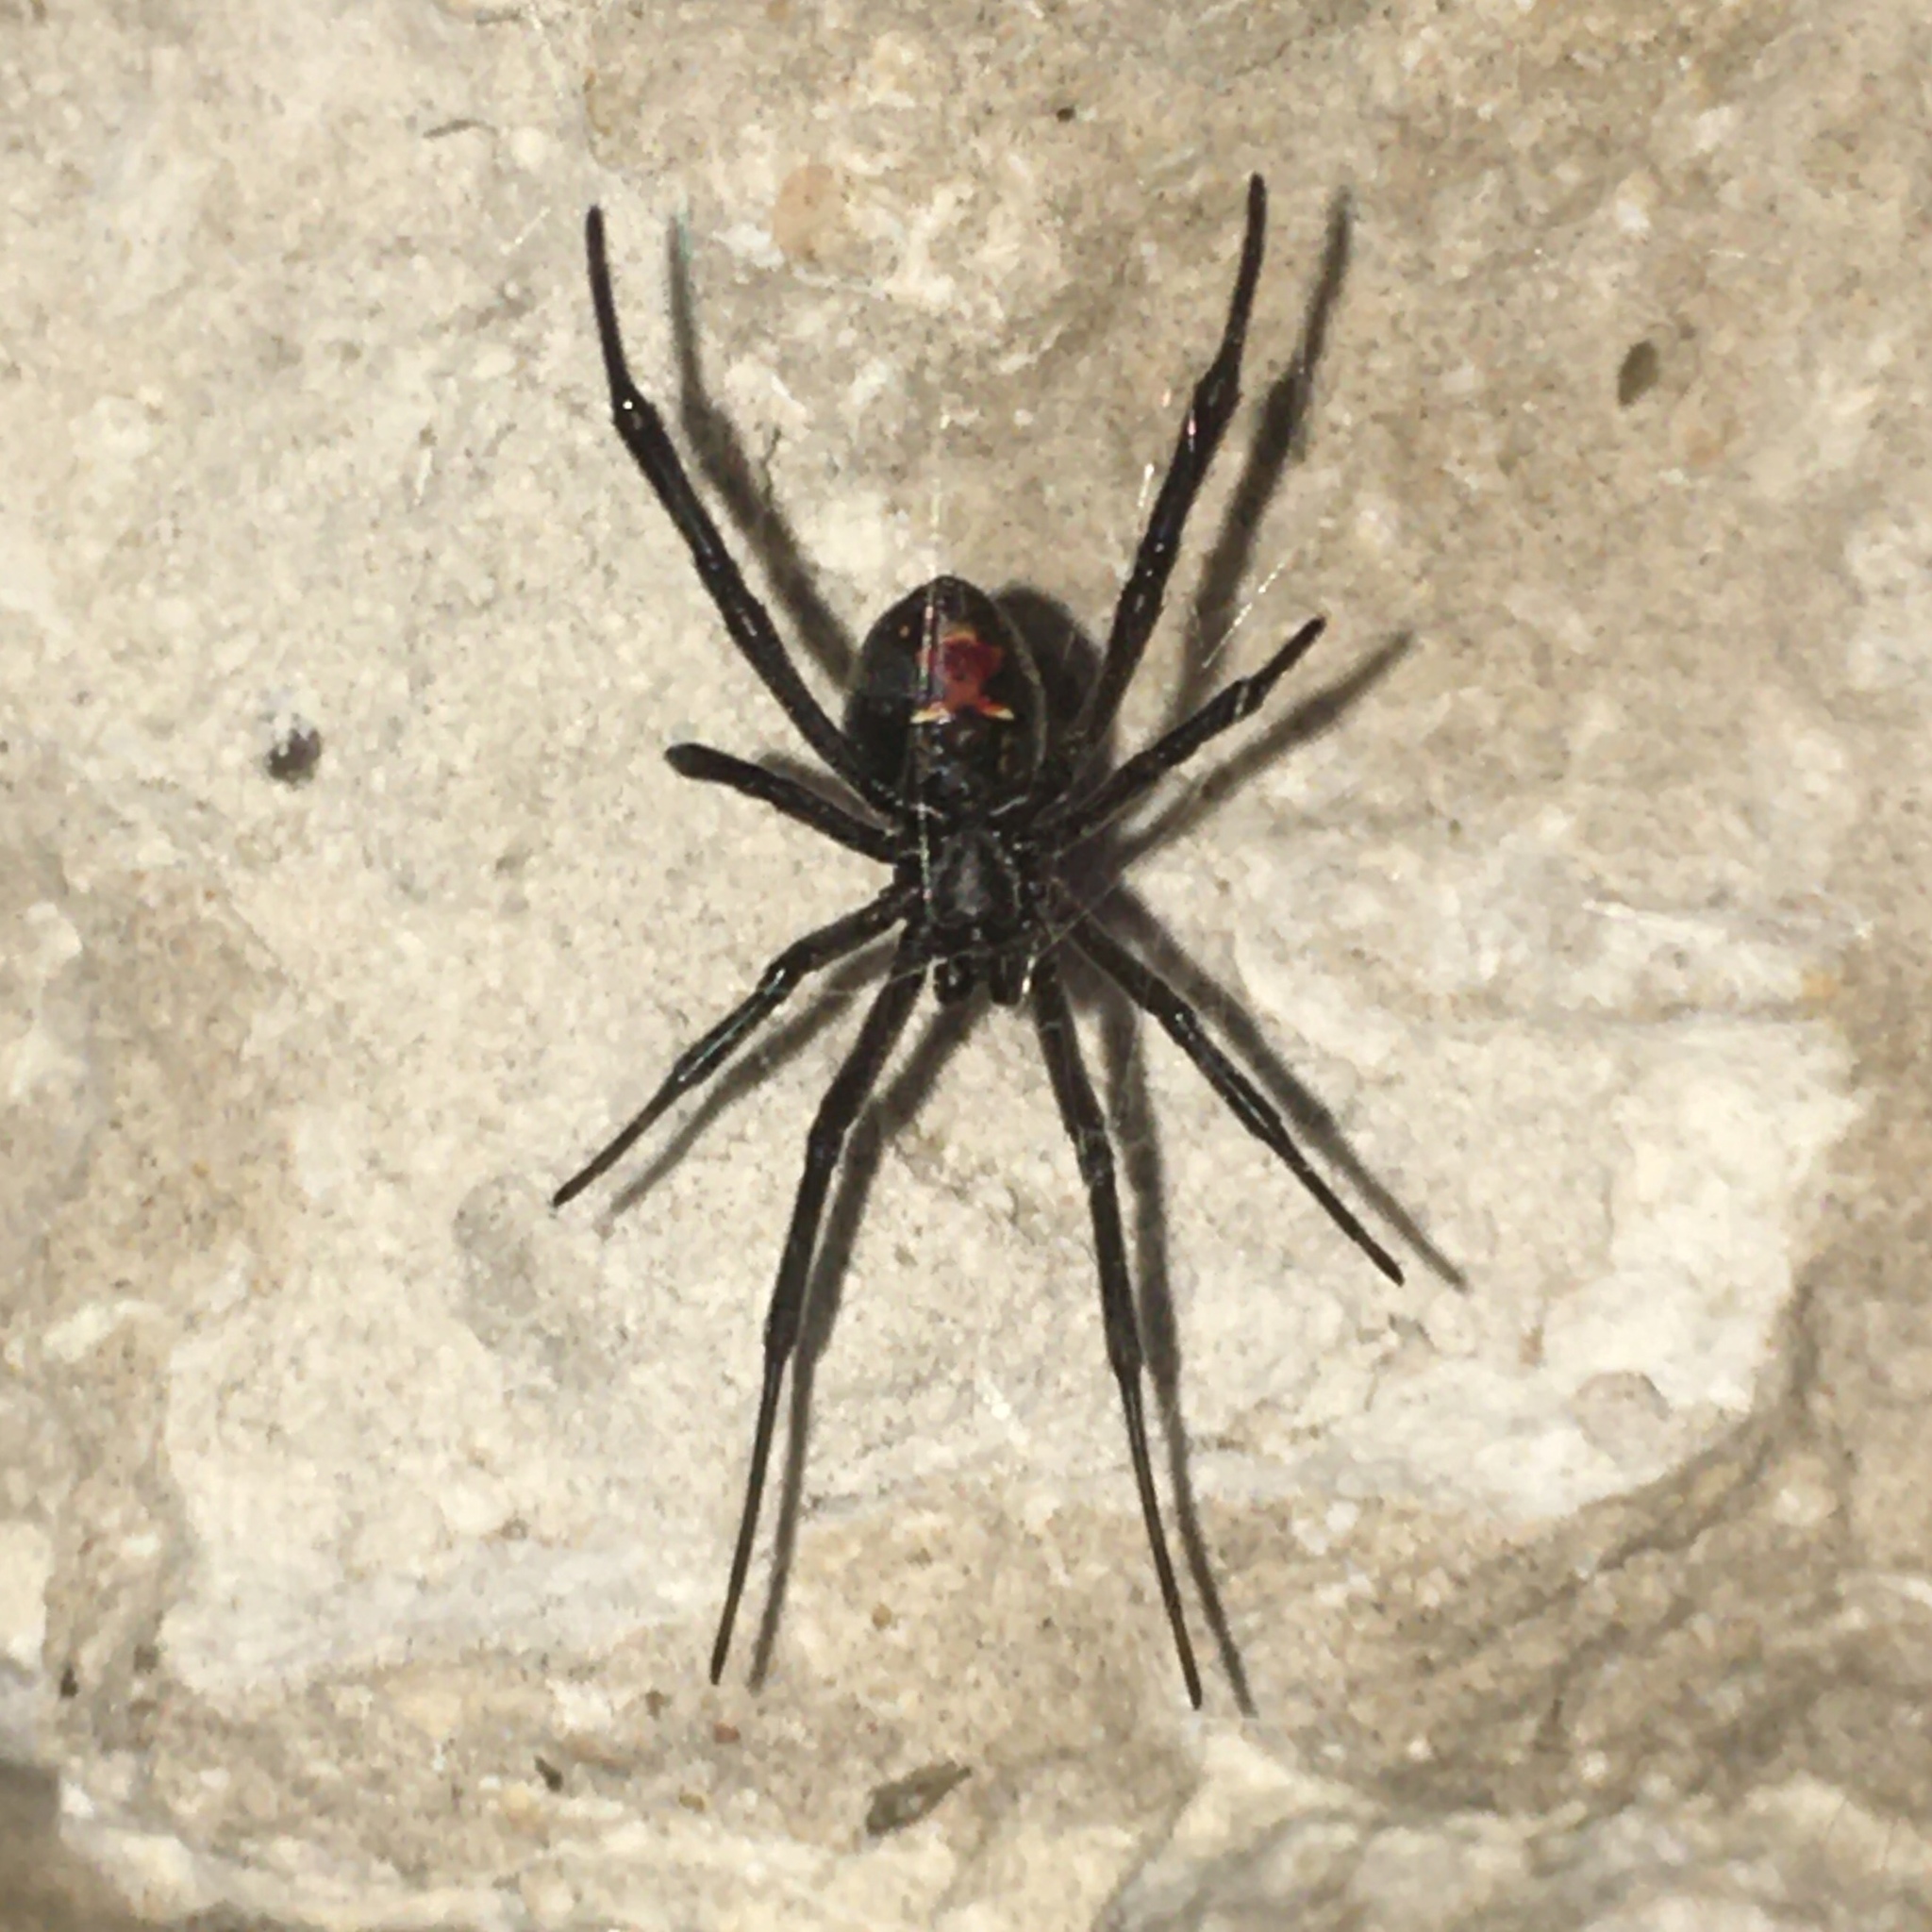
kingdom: Animalia
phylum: Arthropoda
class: Arachnida
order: Araneae
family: Theridiidae
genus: Latrodectus
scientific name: Latrodectus mirabilis
